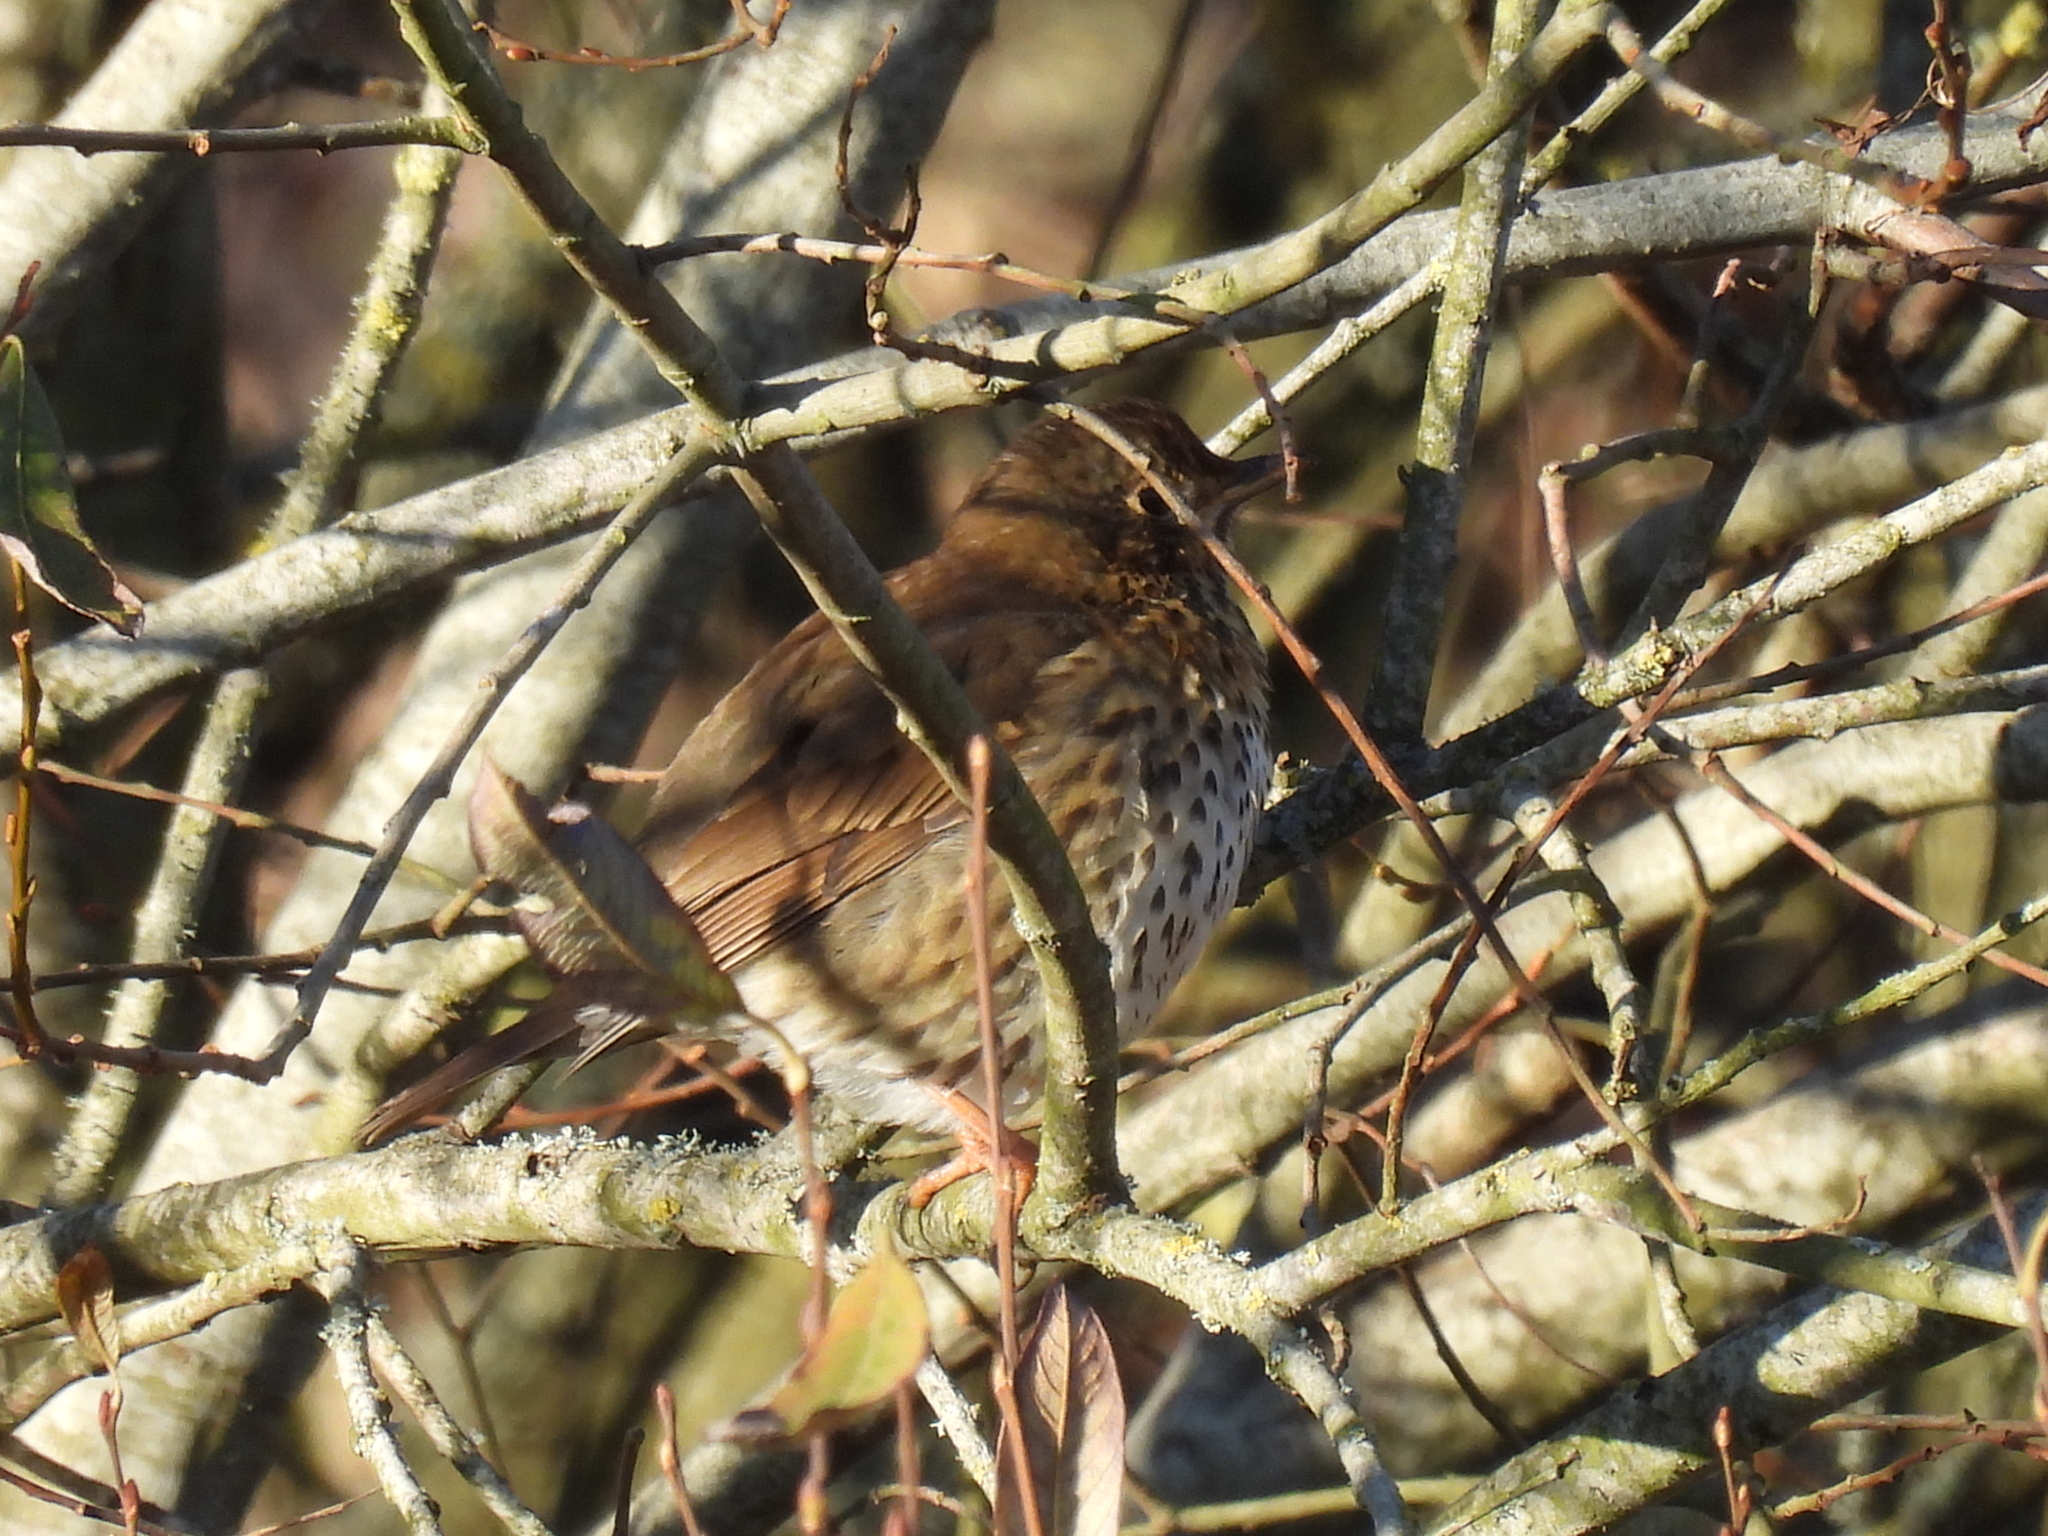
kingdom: Animalia
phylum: Chordata
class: Aves
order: Passeriformes
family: Turdidae
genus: Turdus
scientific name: Turdus philomelos
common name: Song thrush
